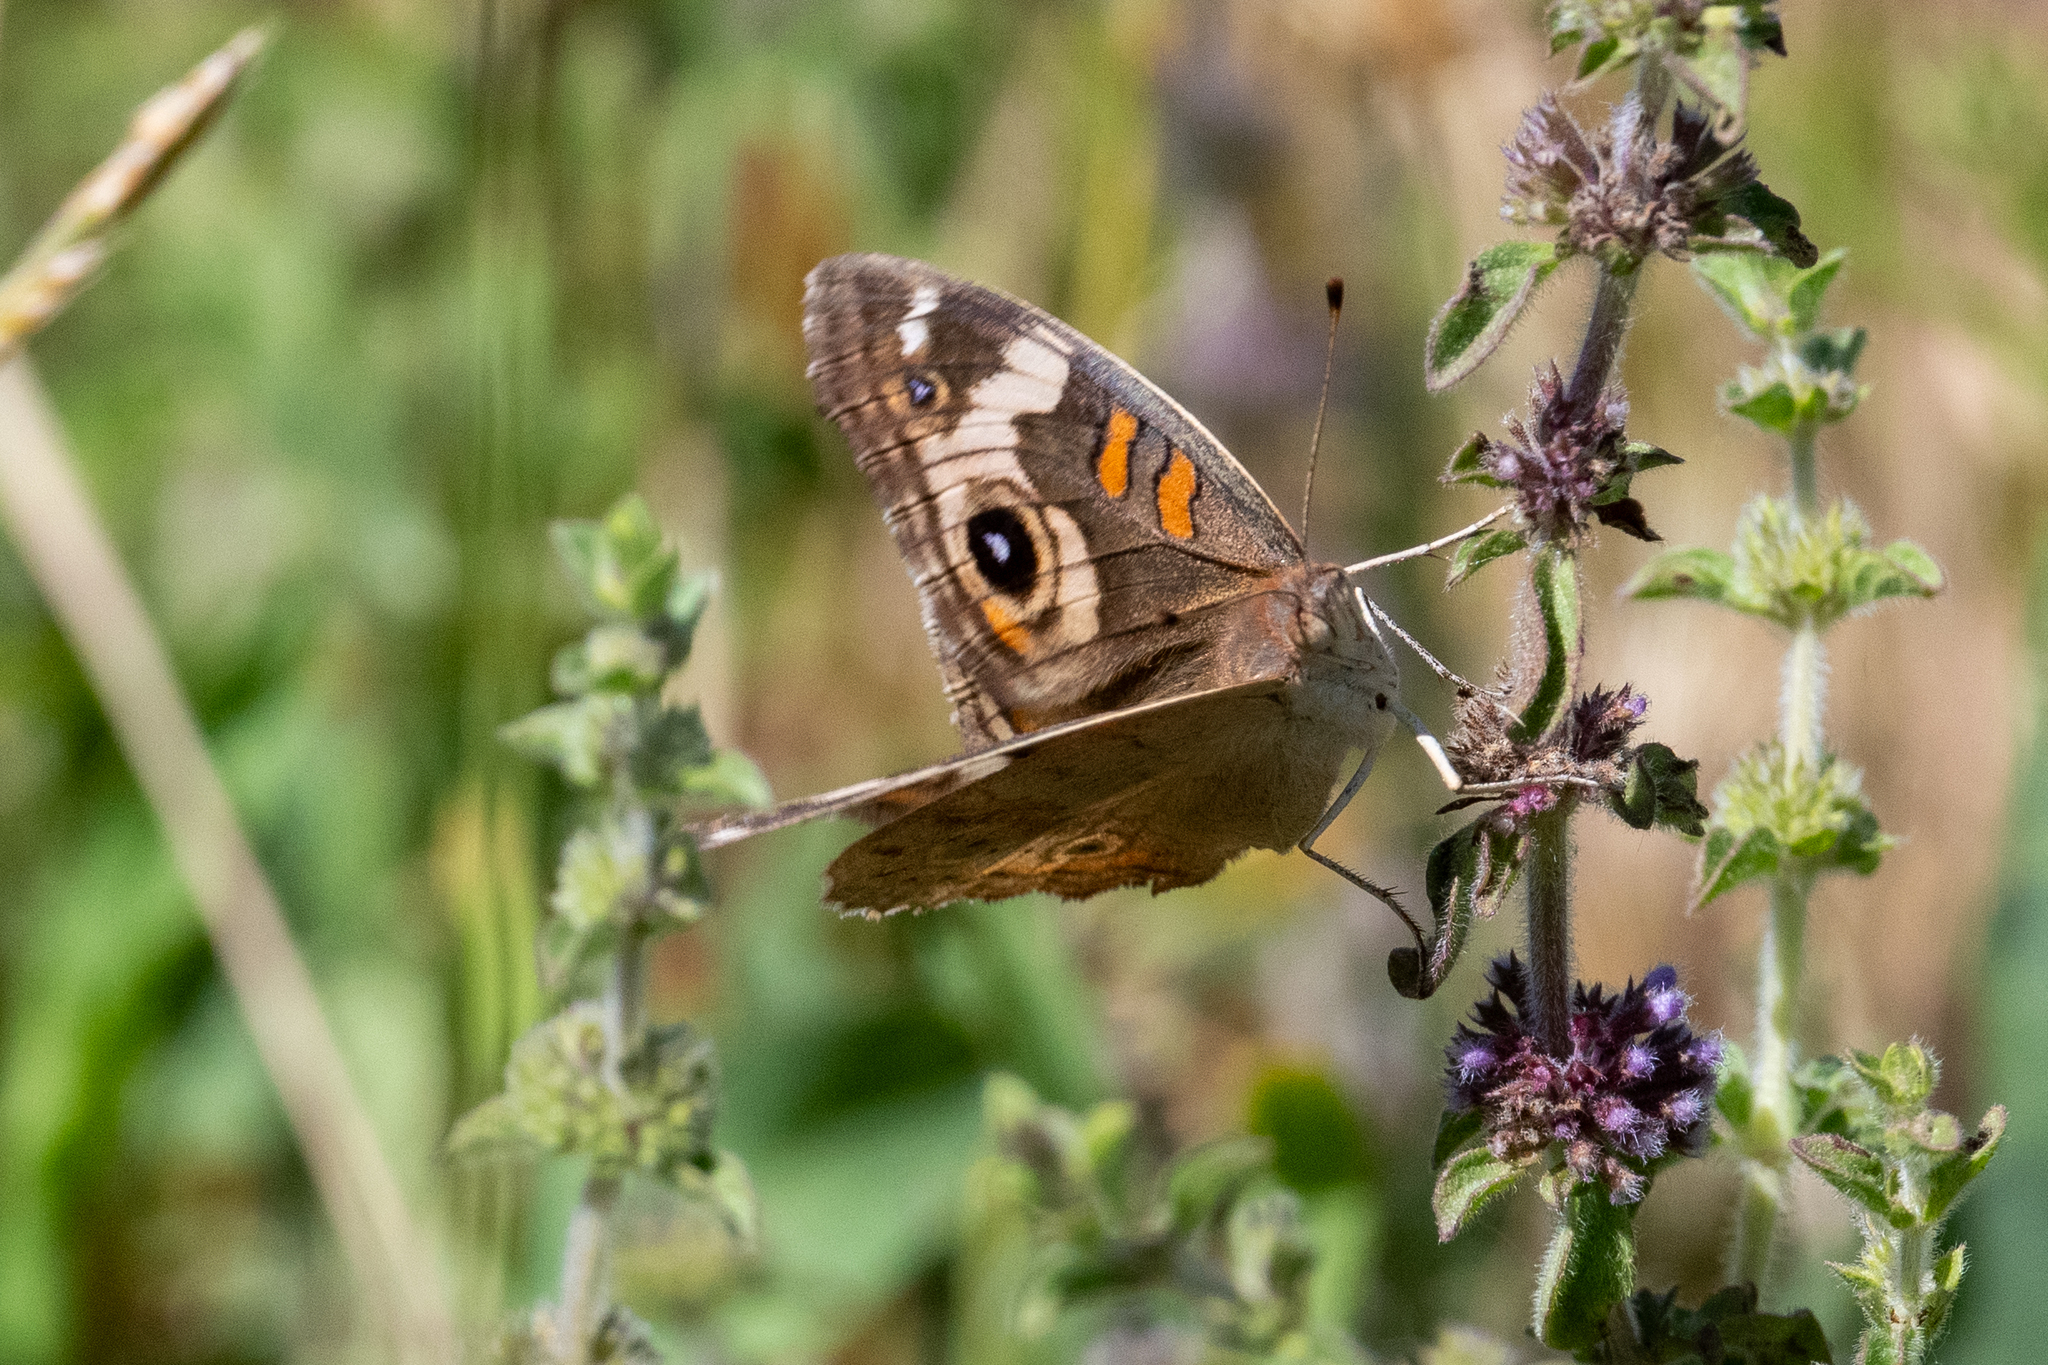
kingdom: Animalia
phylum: Arthropoda
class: Insecta
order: Lepidoptera
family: Nymphalidae
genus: Junonia
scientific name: Junonia grisea
